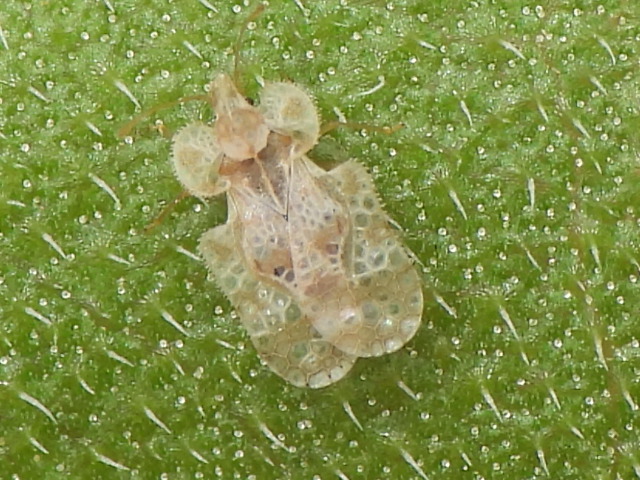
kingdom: Animalia
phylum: Arthropoda
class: Insecta
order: Hemiptera
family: Tingidae
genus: Corythucha
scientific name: Corythucha marmorata
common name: Chrysanthemum lace bug
